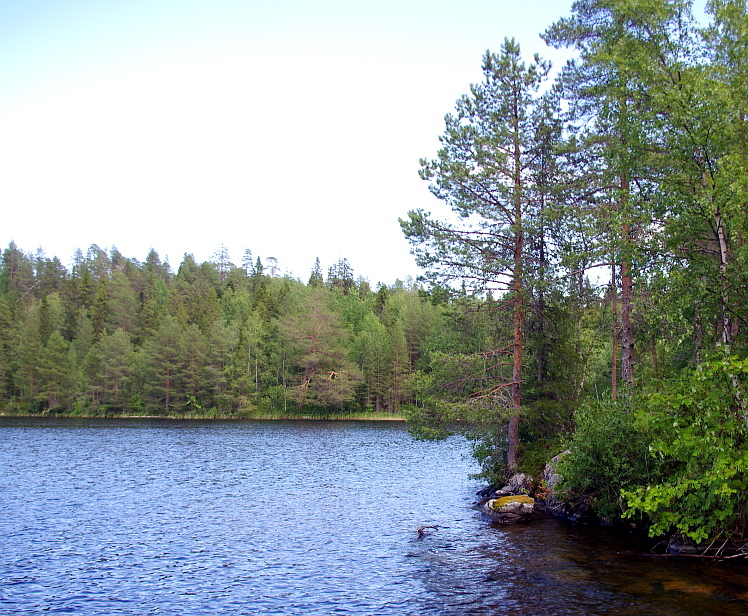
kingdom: Plantae
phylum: Tracheophyta
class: Pinopsida
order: Pinales
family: Pinaceae
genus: Pinus
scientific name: Pinus sylvestris
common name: Scots pine
